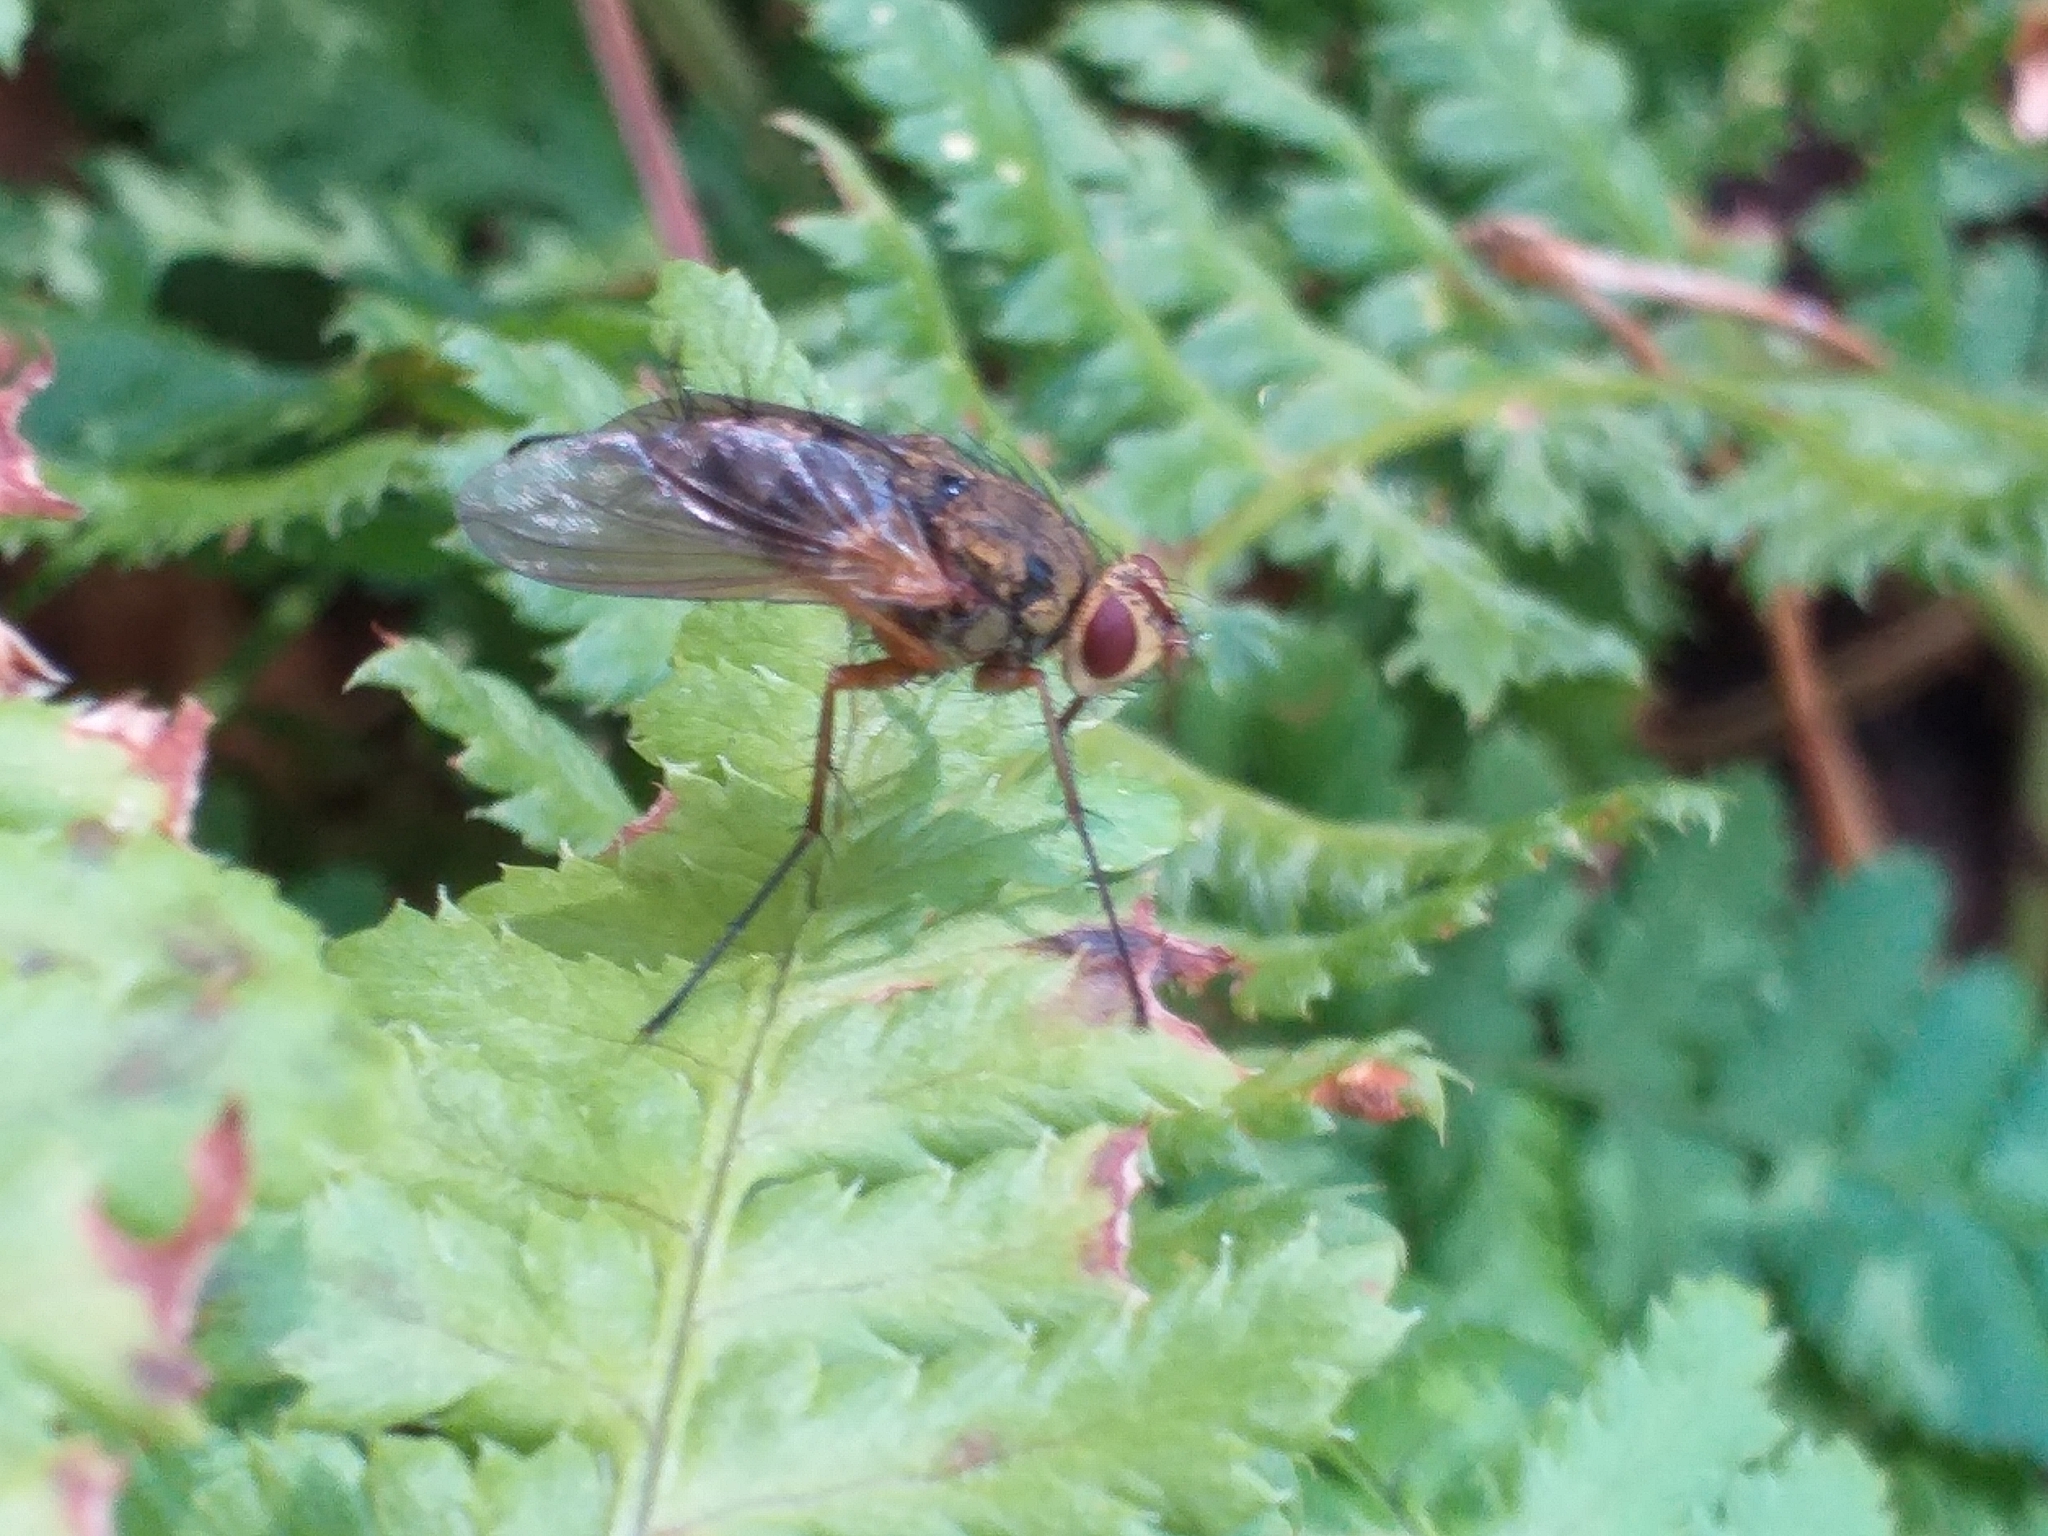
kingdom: Animalia
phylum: Arthropoda
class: Insecta
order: Diptera
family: Tachinidae
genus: Dexiosoma
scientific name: Dexiosoma caninum
